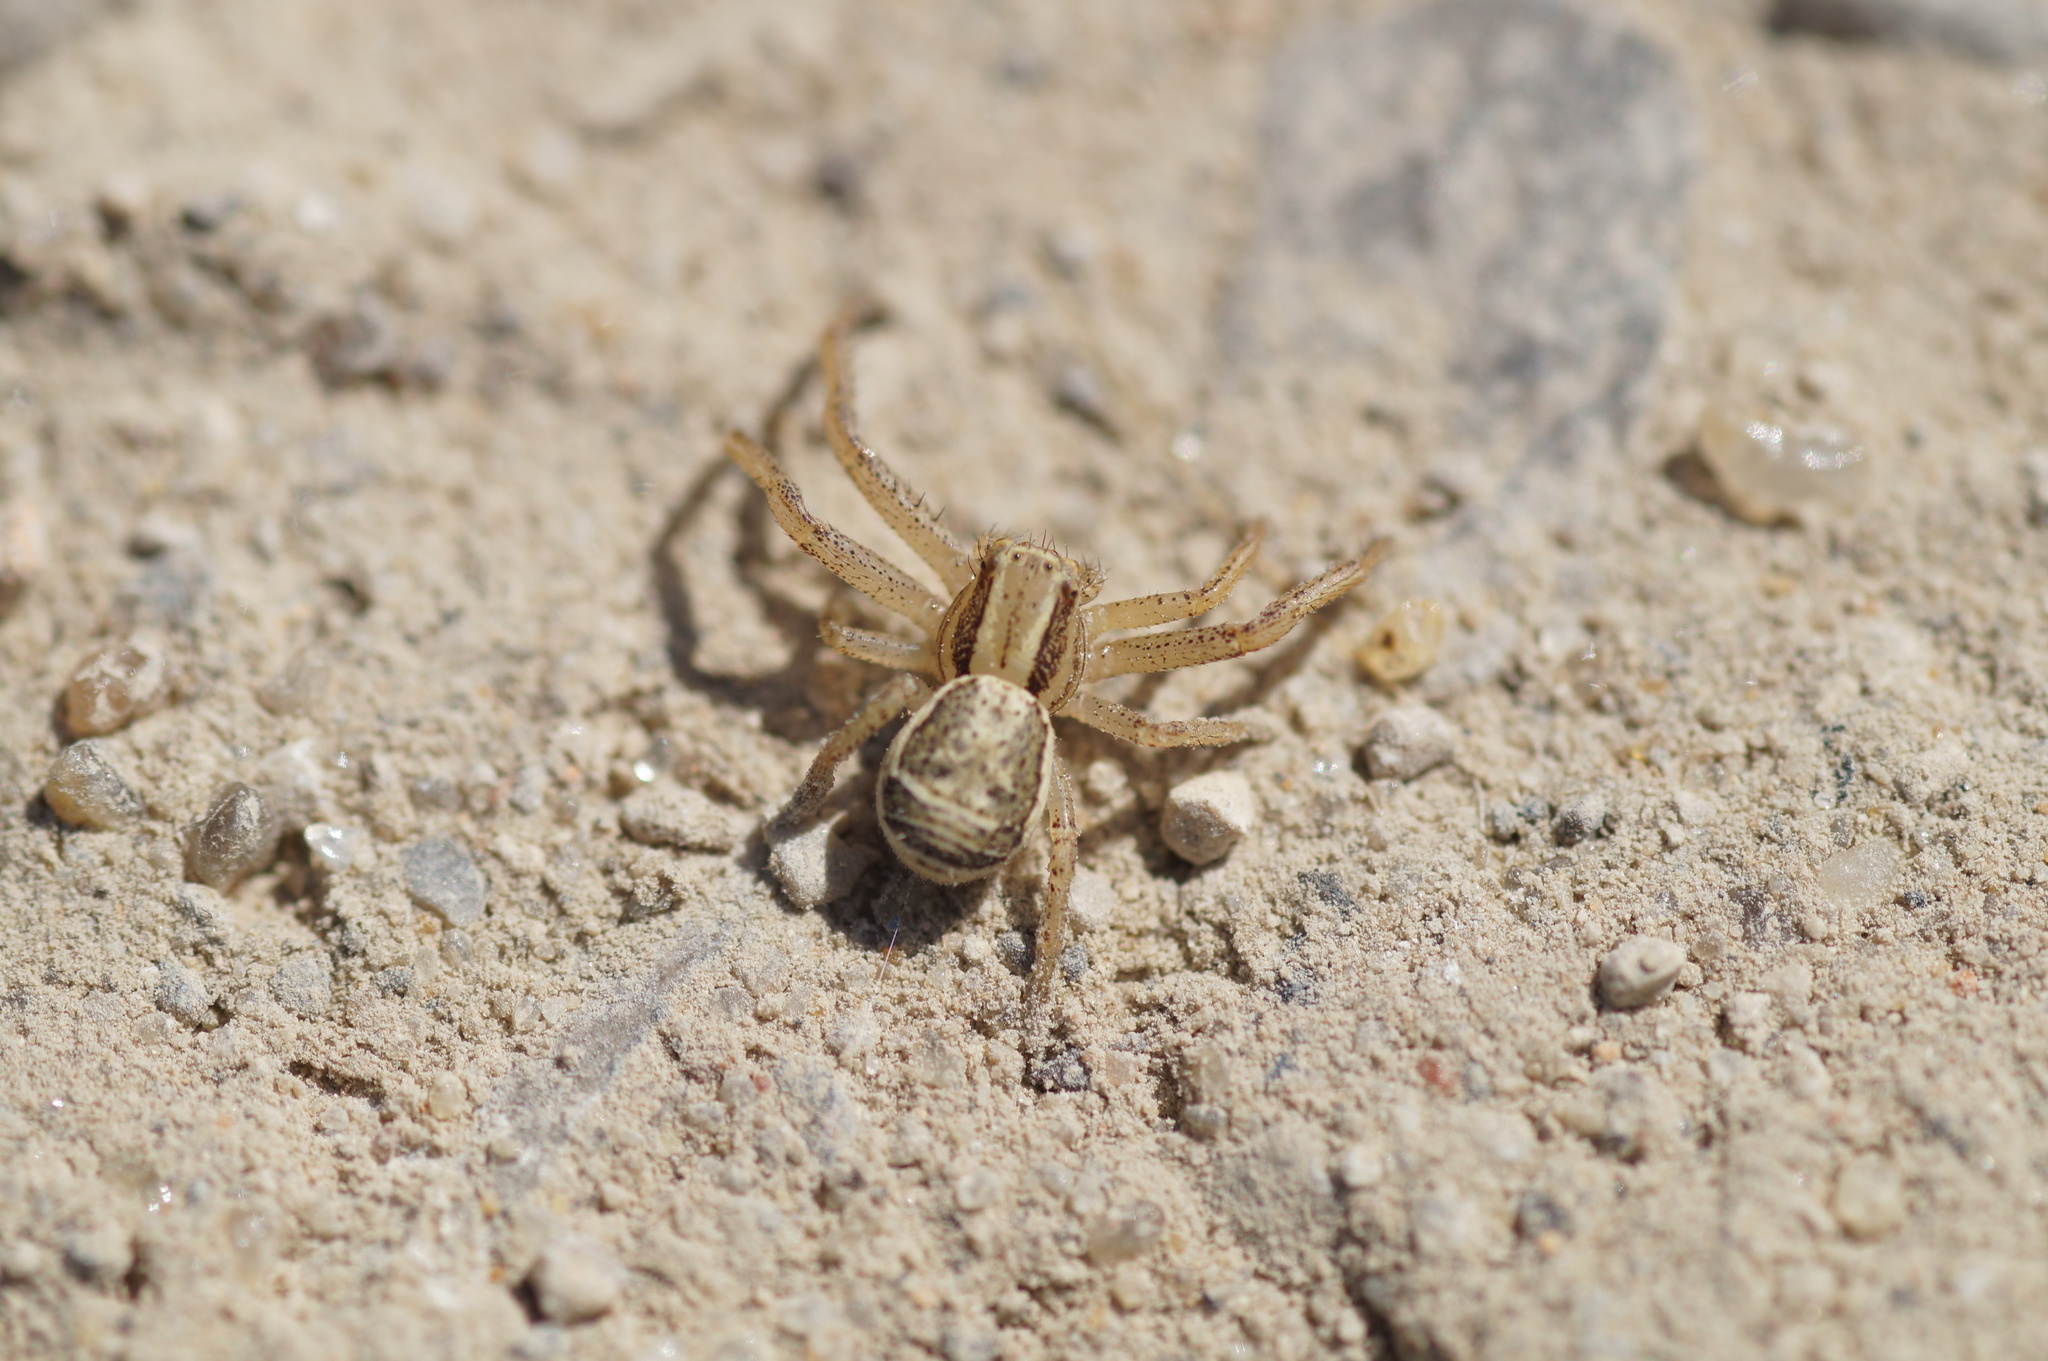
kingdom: Animalia
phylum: Arthropoda
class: Arachnida
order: Araneae
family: Thomisidae
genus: Xysticus
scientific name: Xysticus ulmi
